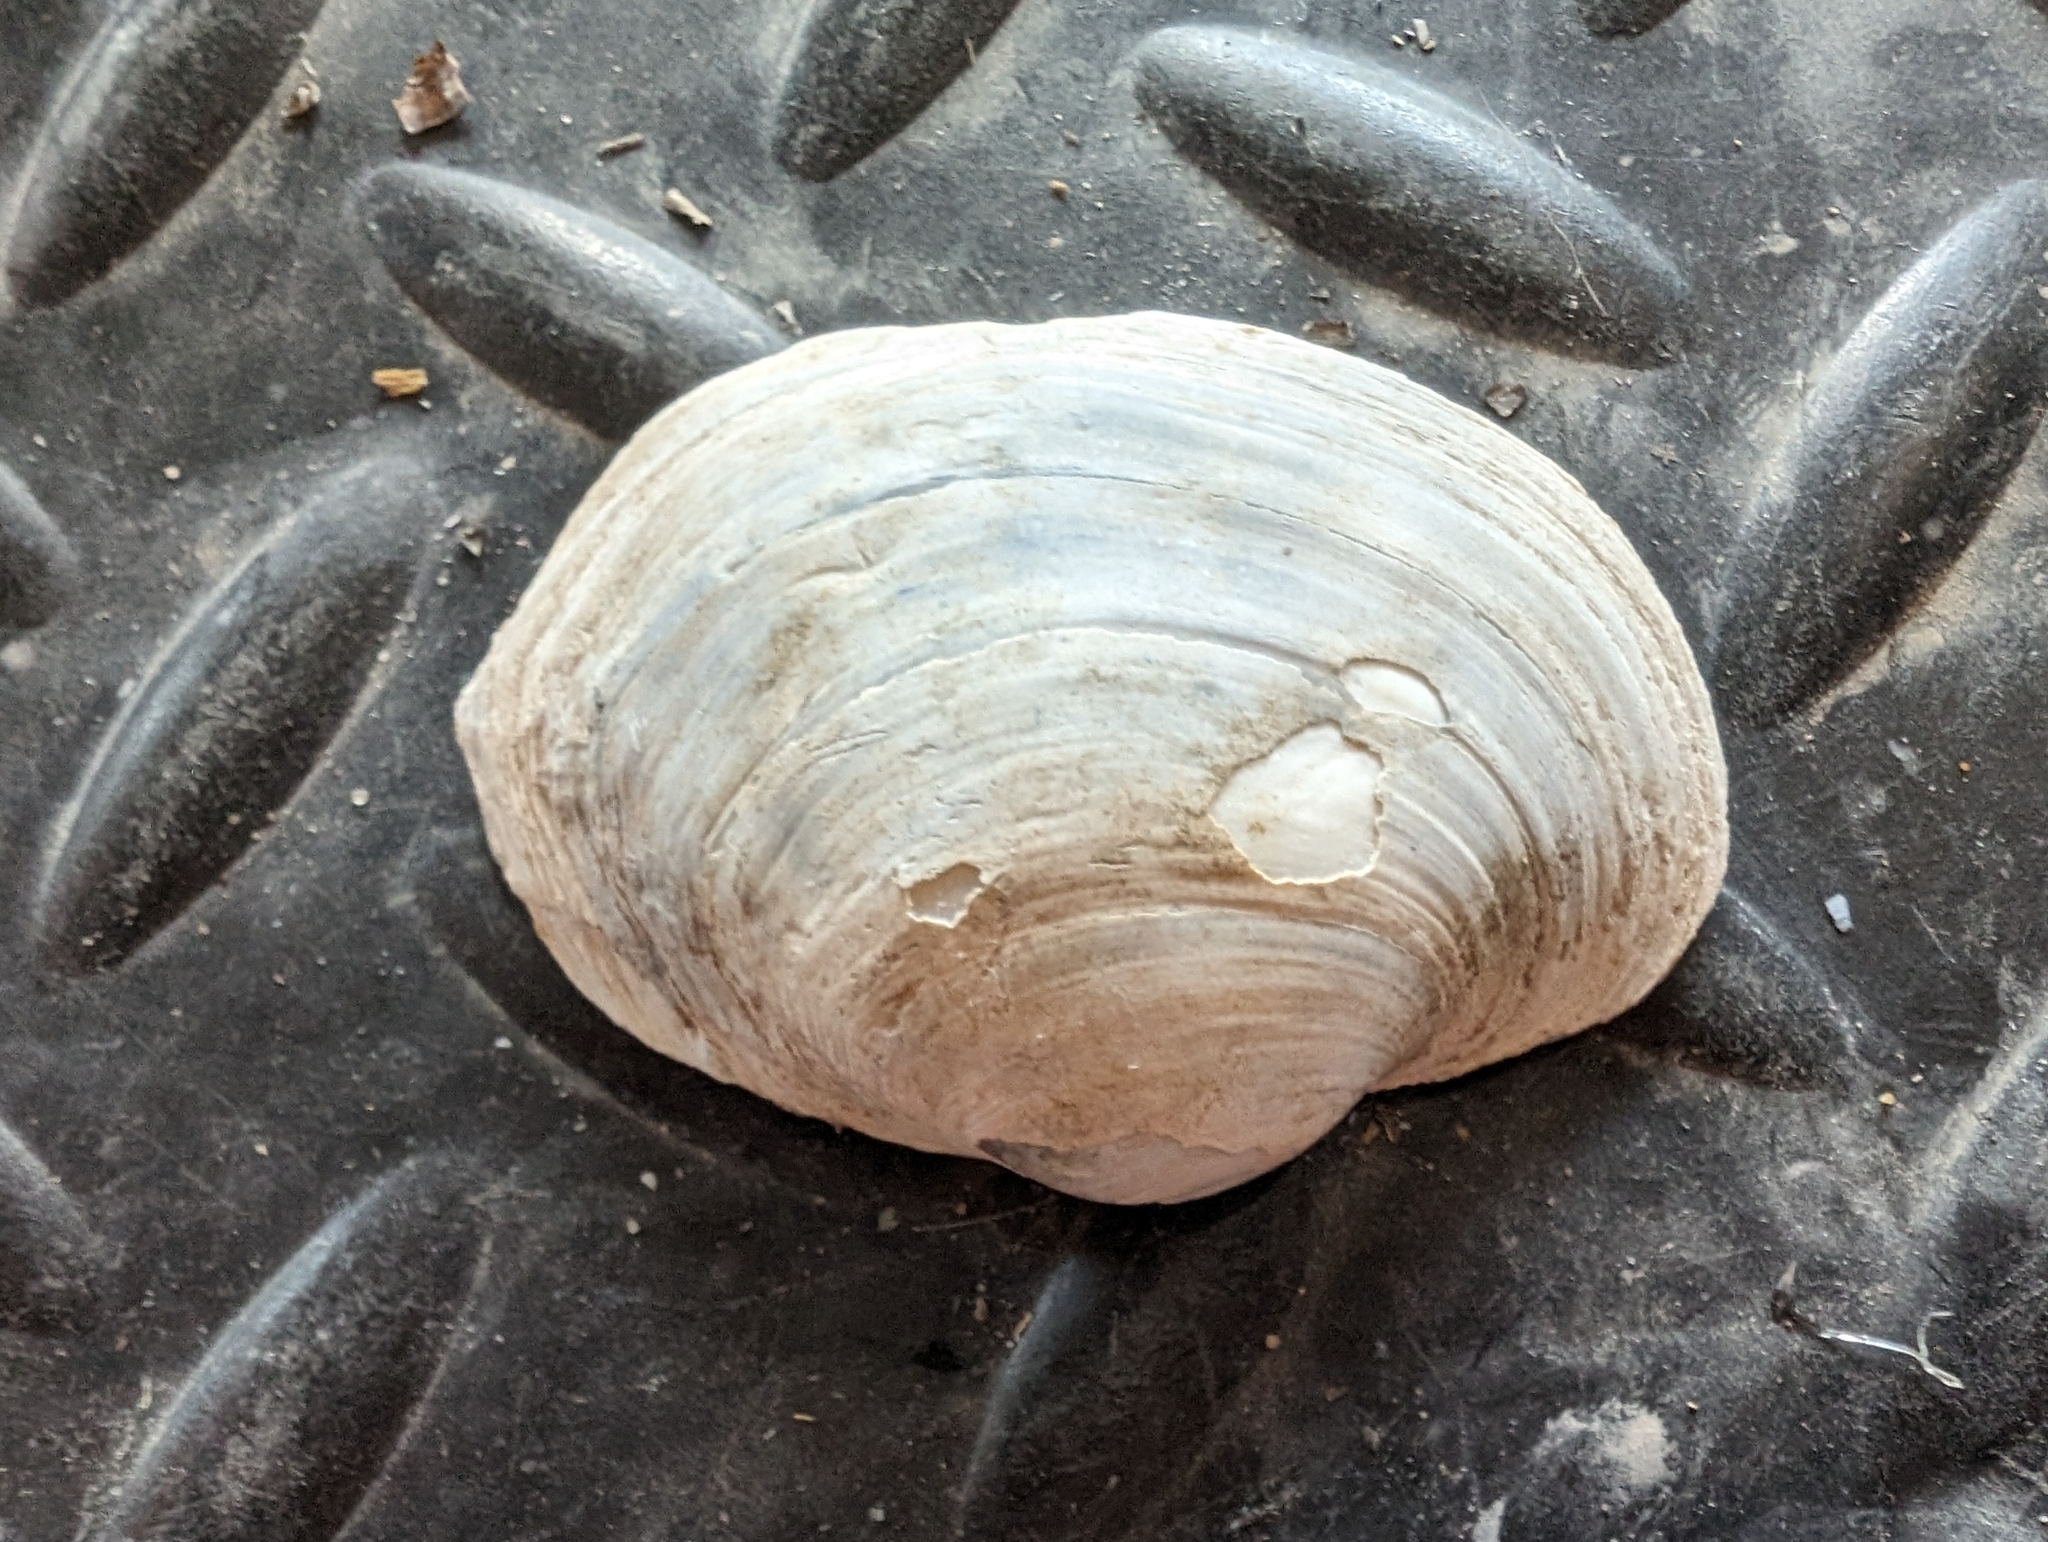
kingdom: Animalia
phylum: Mollusca
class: Bivalvia
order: Unionida
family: Unionidae
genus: Lampsilis
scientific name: Lampsilis cardium
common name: Plain pocketbook
